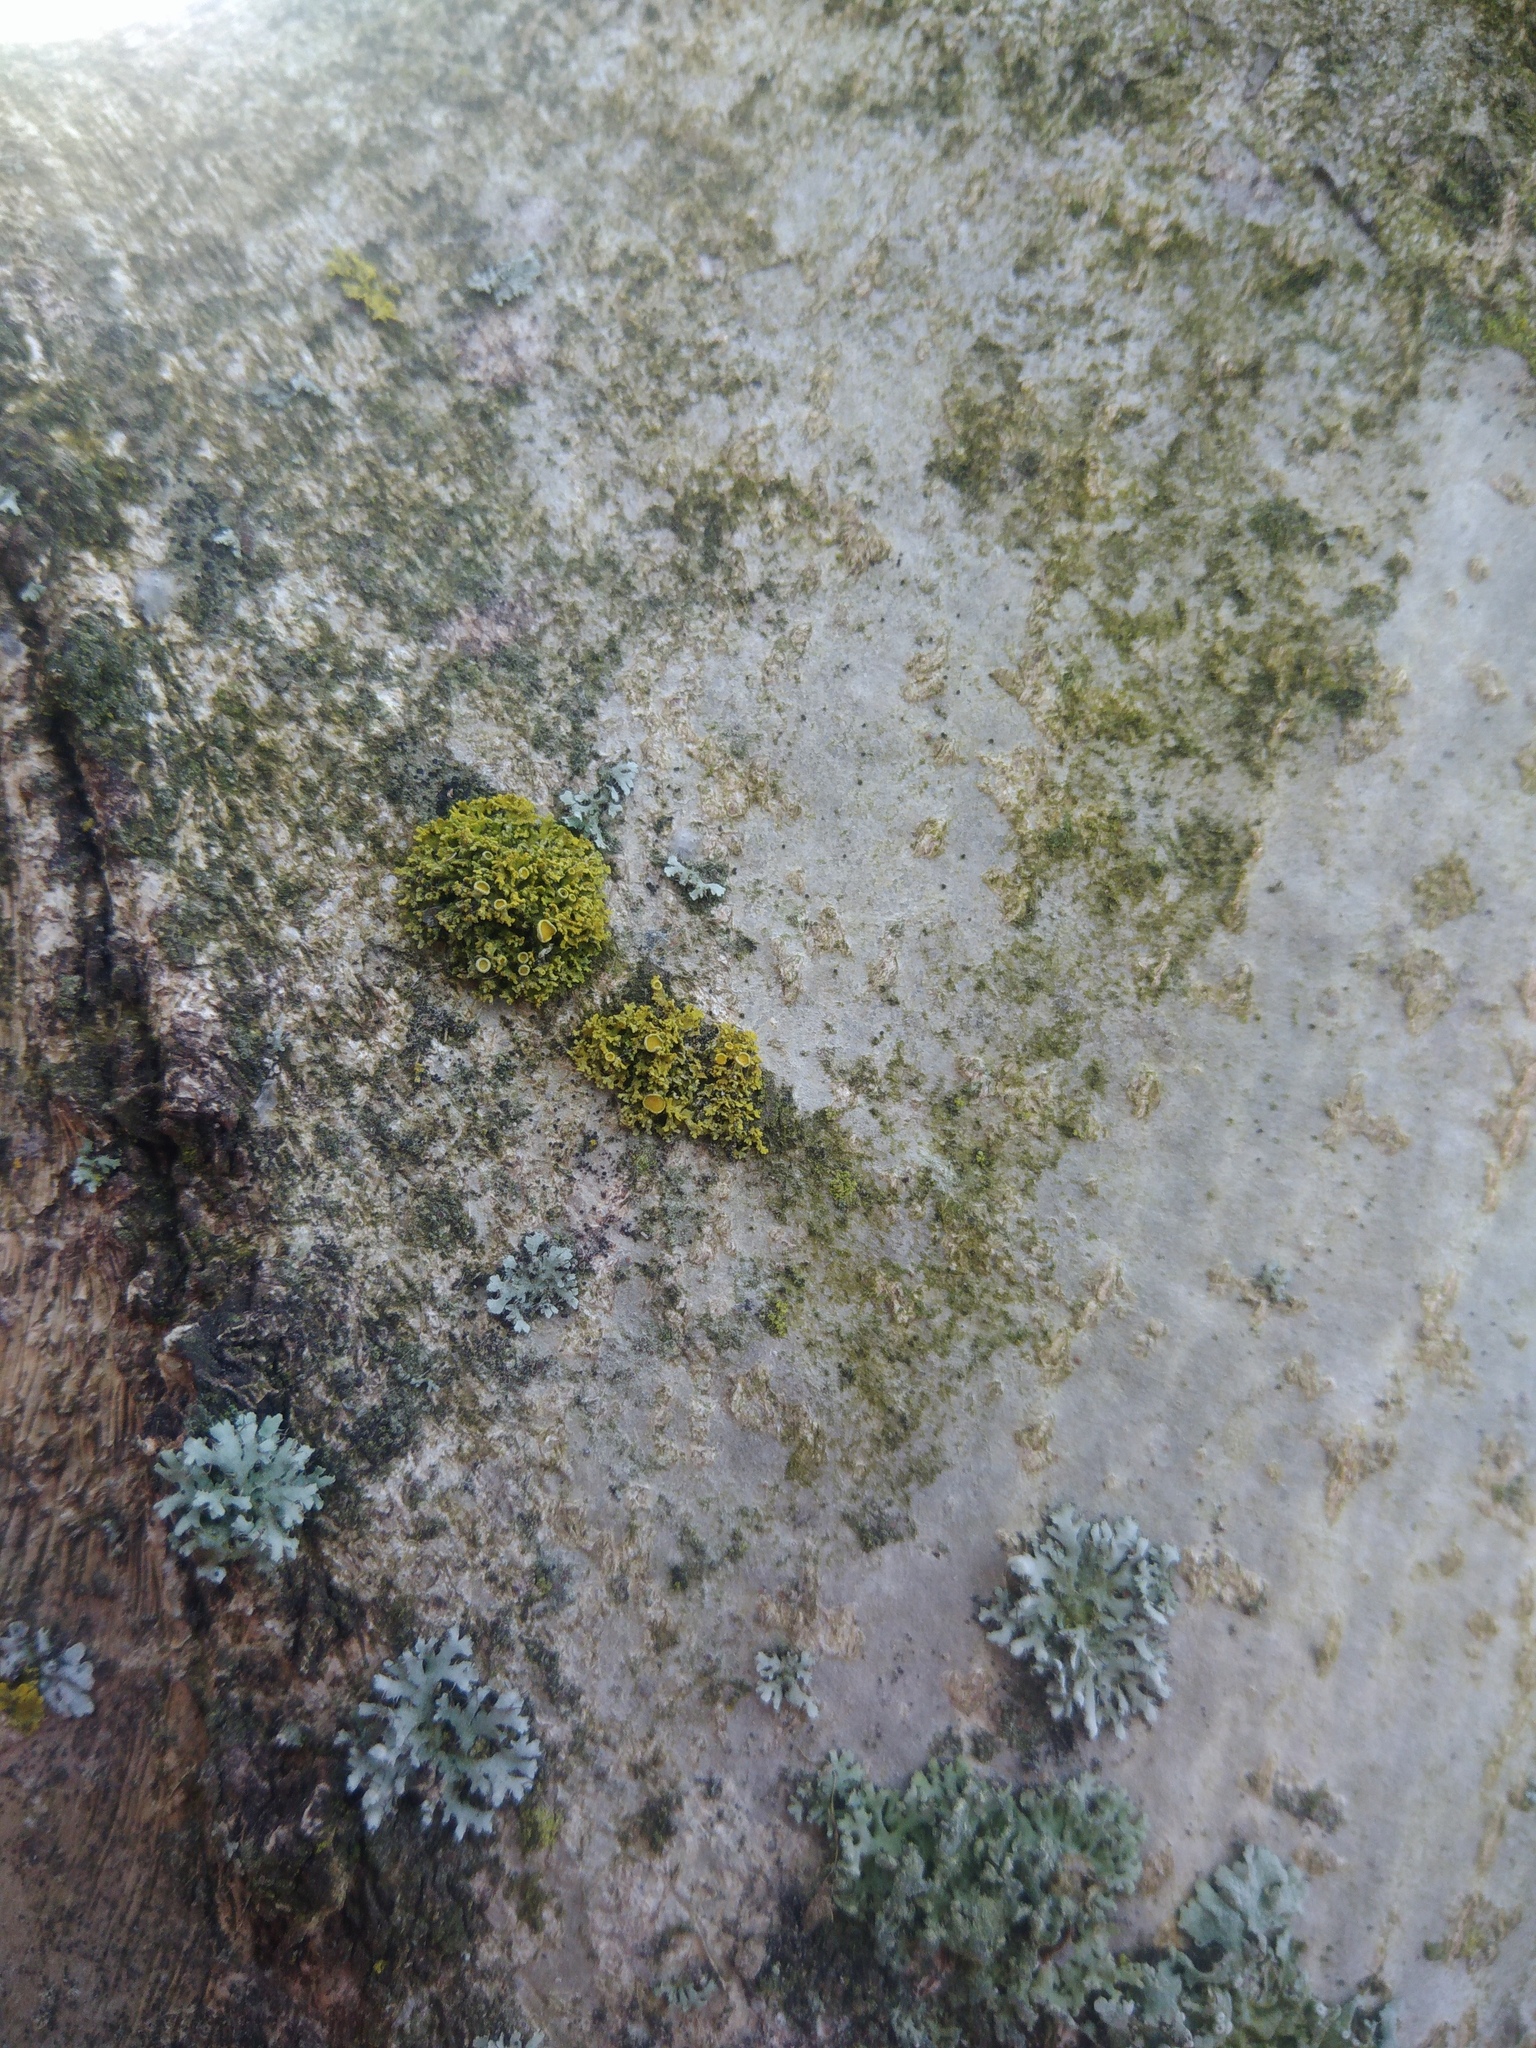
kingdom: Fungi
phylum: Ascomycota
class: Lecanoromycetes
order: Teloschistales
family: Teloschistaceae
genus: Polycauliona
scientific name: Polycauliona polycarpa
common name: Pin-cushion sunburst lichen
